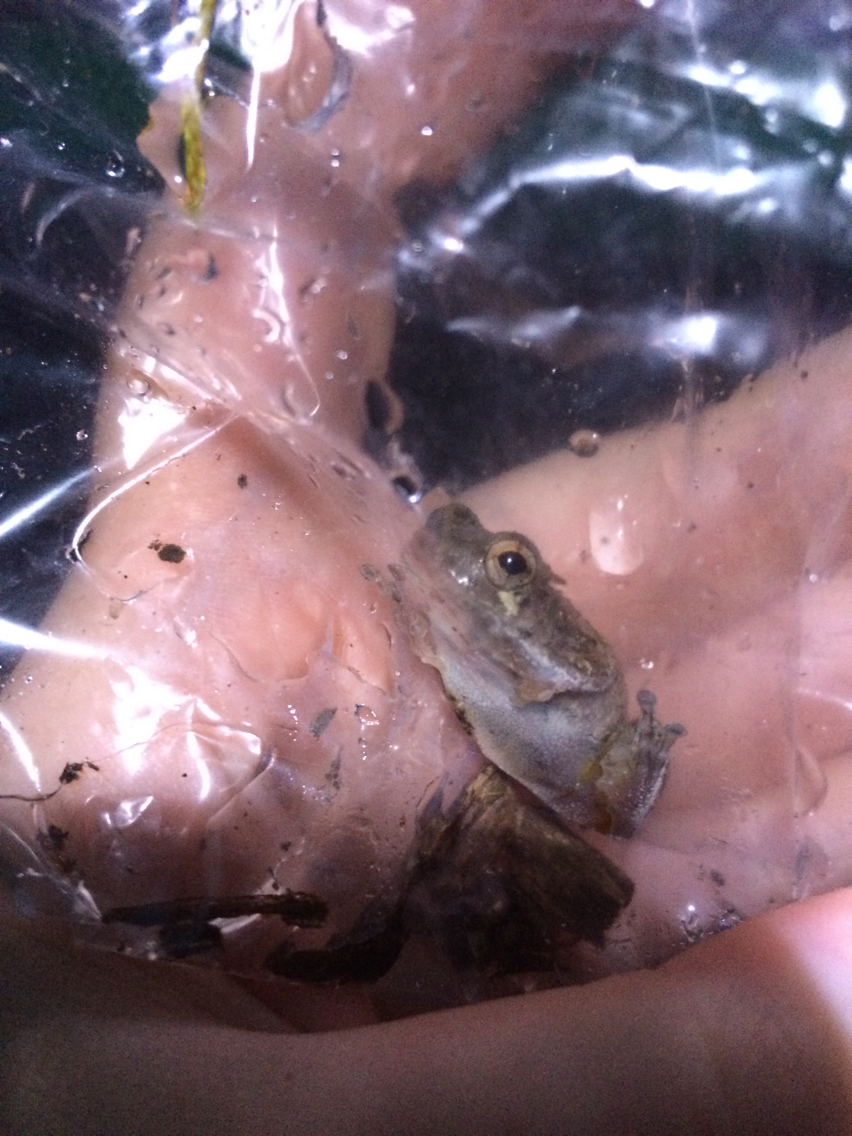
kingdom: Animalia
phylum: Chordata
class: Amphibia
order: Anura
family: Hylidae
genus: Hyla
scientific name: Hyla
